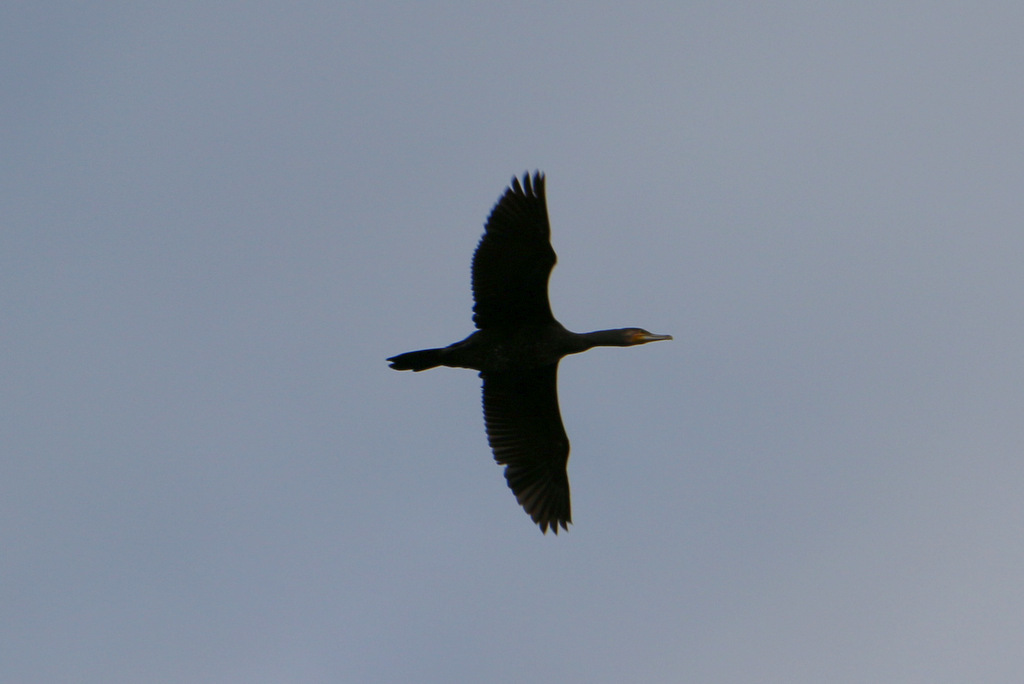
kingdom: Animalia
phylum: Chordata
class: Aves
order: Suliformes
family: Phalacrocoracidae
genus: Phalacrocorax
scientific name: Phalacrocorax carbo
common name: Great cormorant
